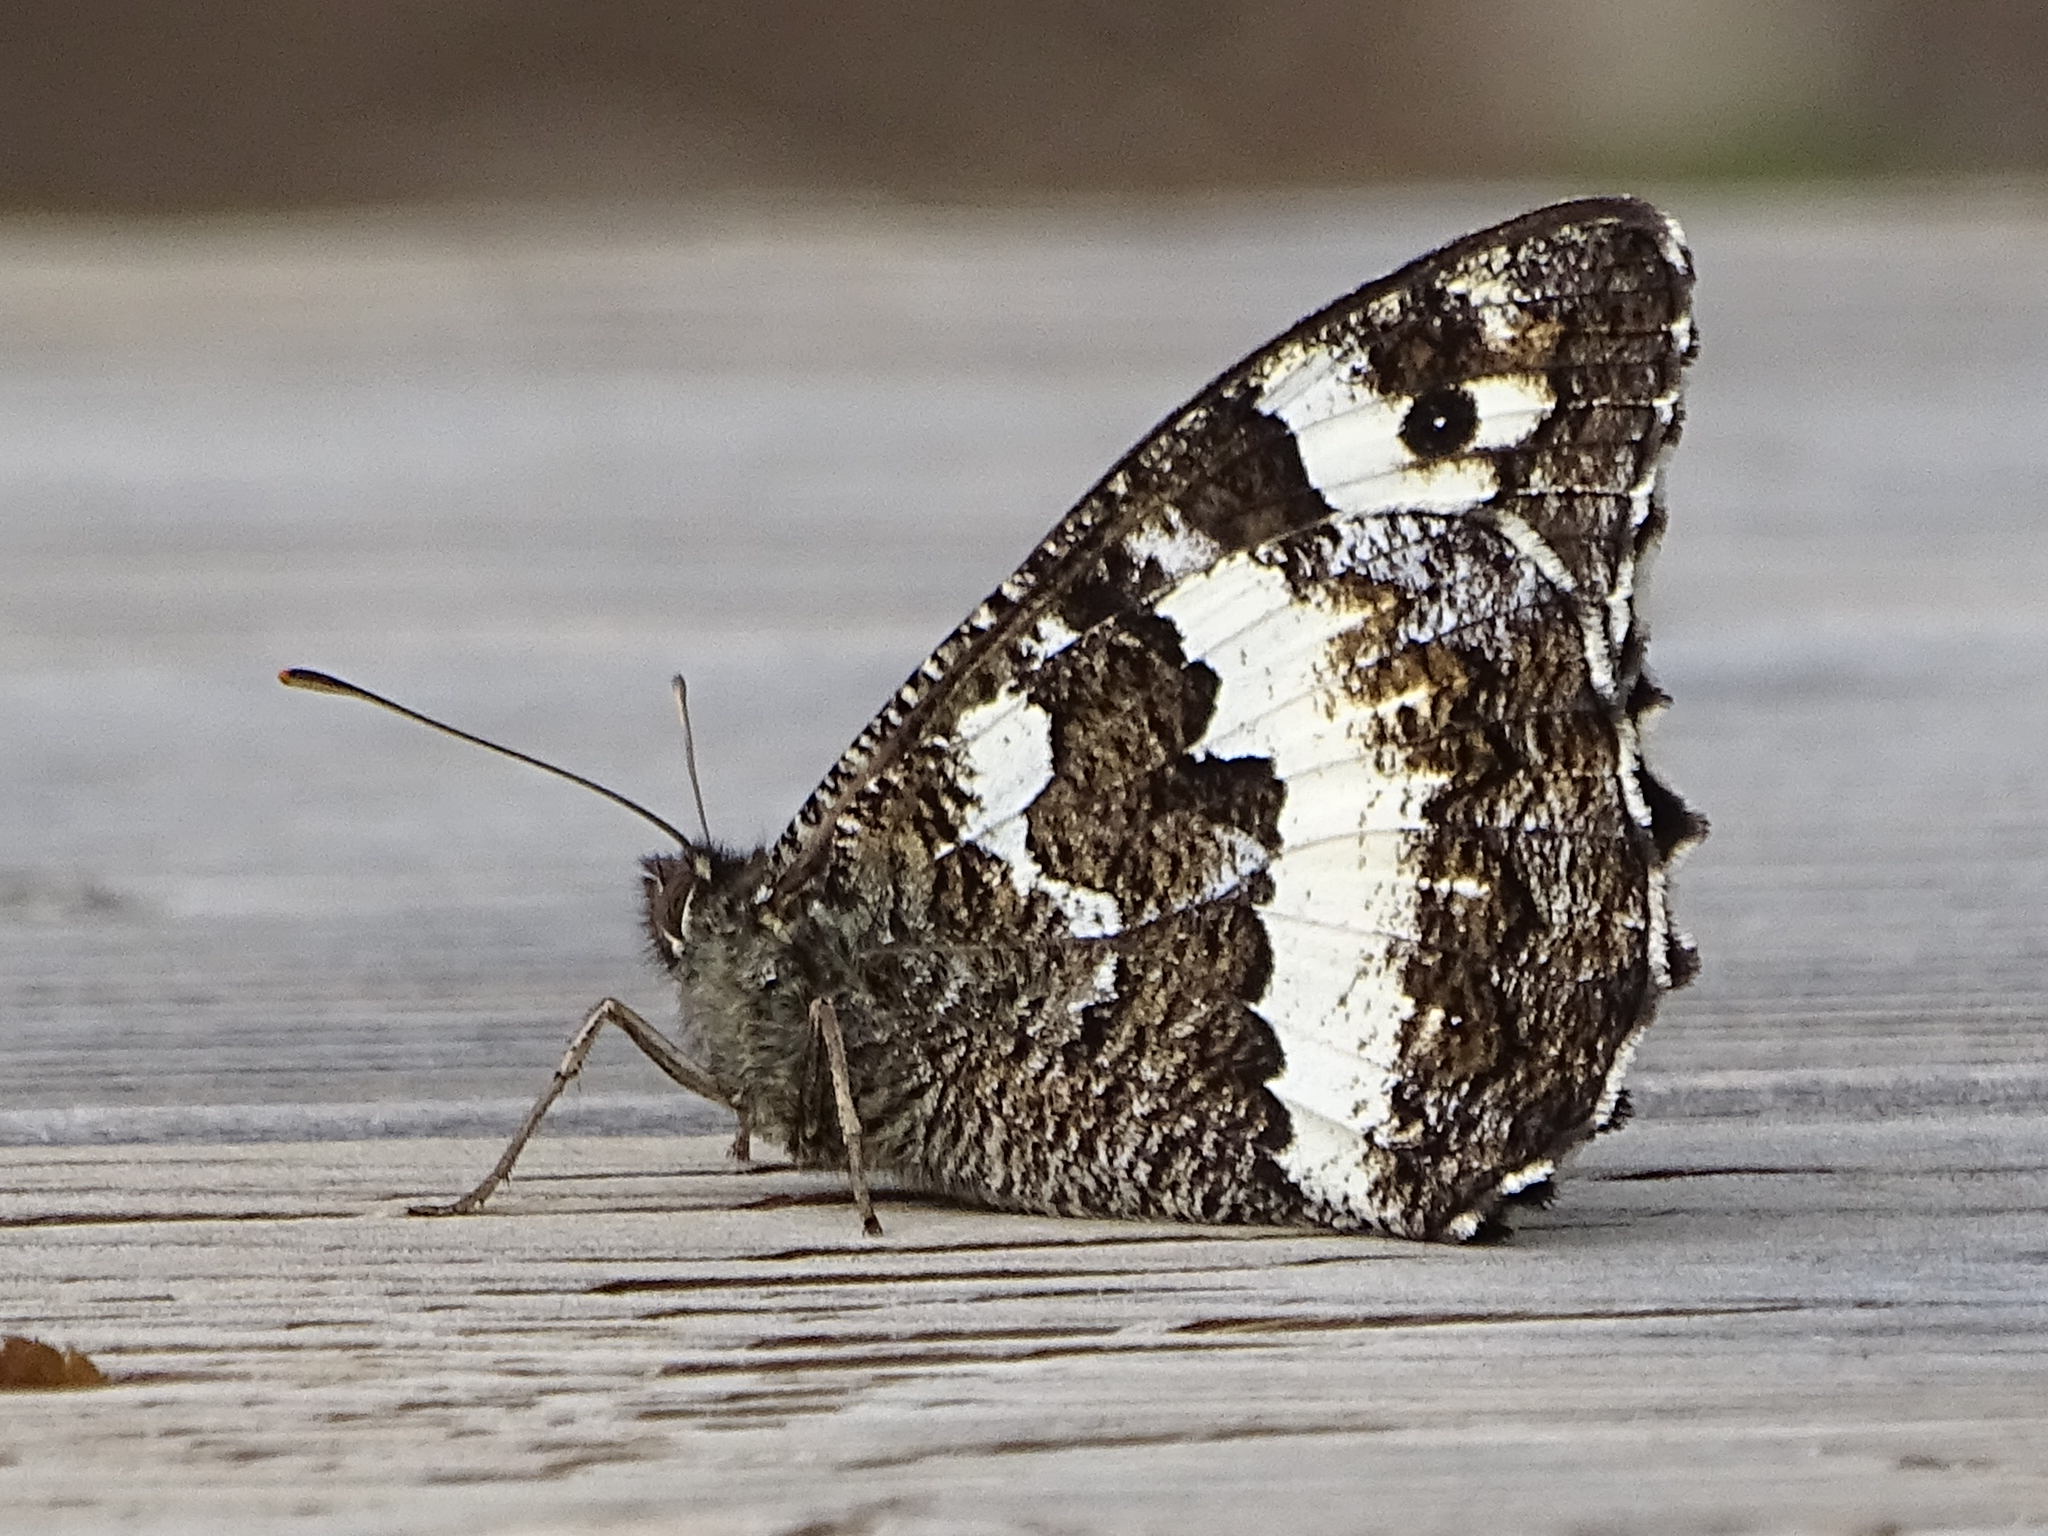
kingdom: Animalia
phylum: Arthropoda
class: Insecta
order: Lepidoptera
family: Lycaenidae
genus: Loweia
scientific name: Loweia tityrus
